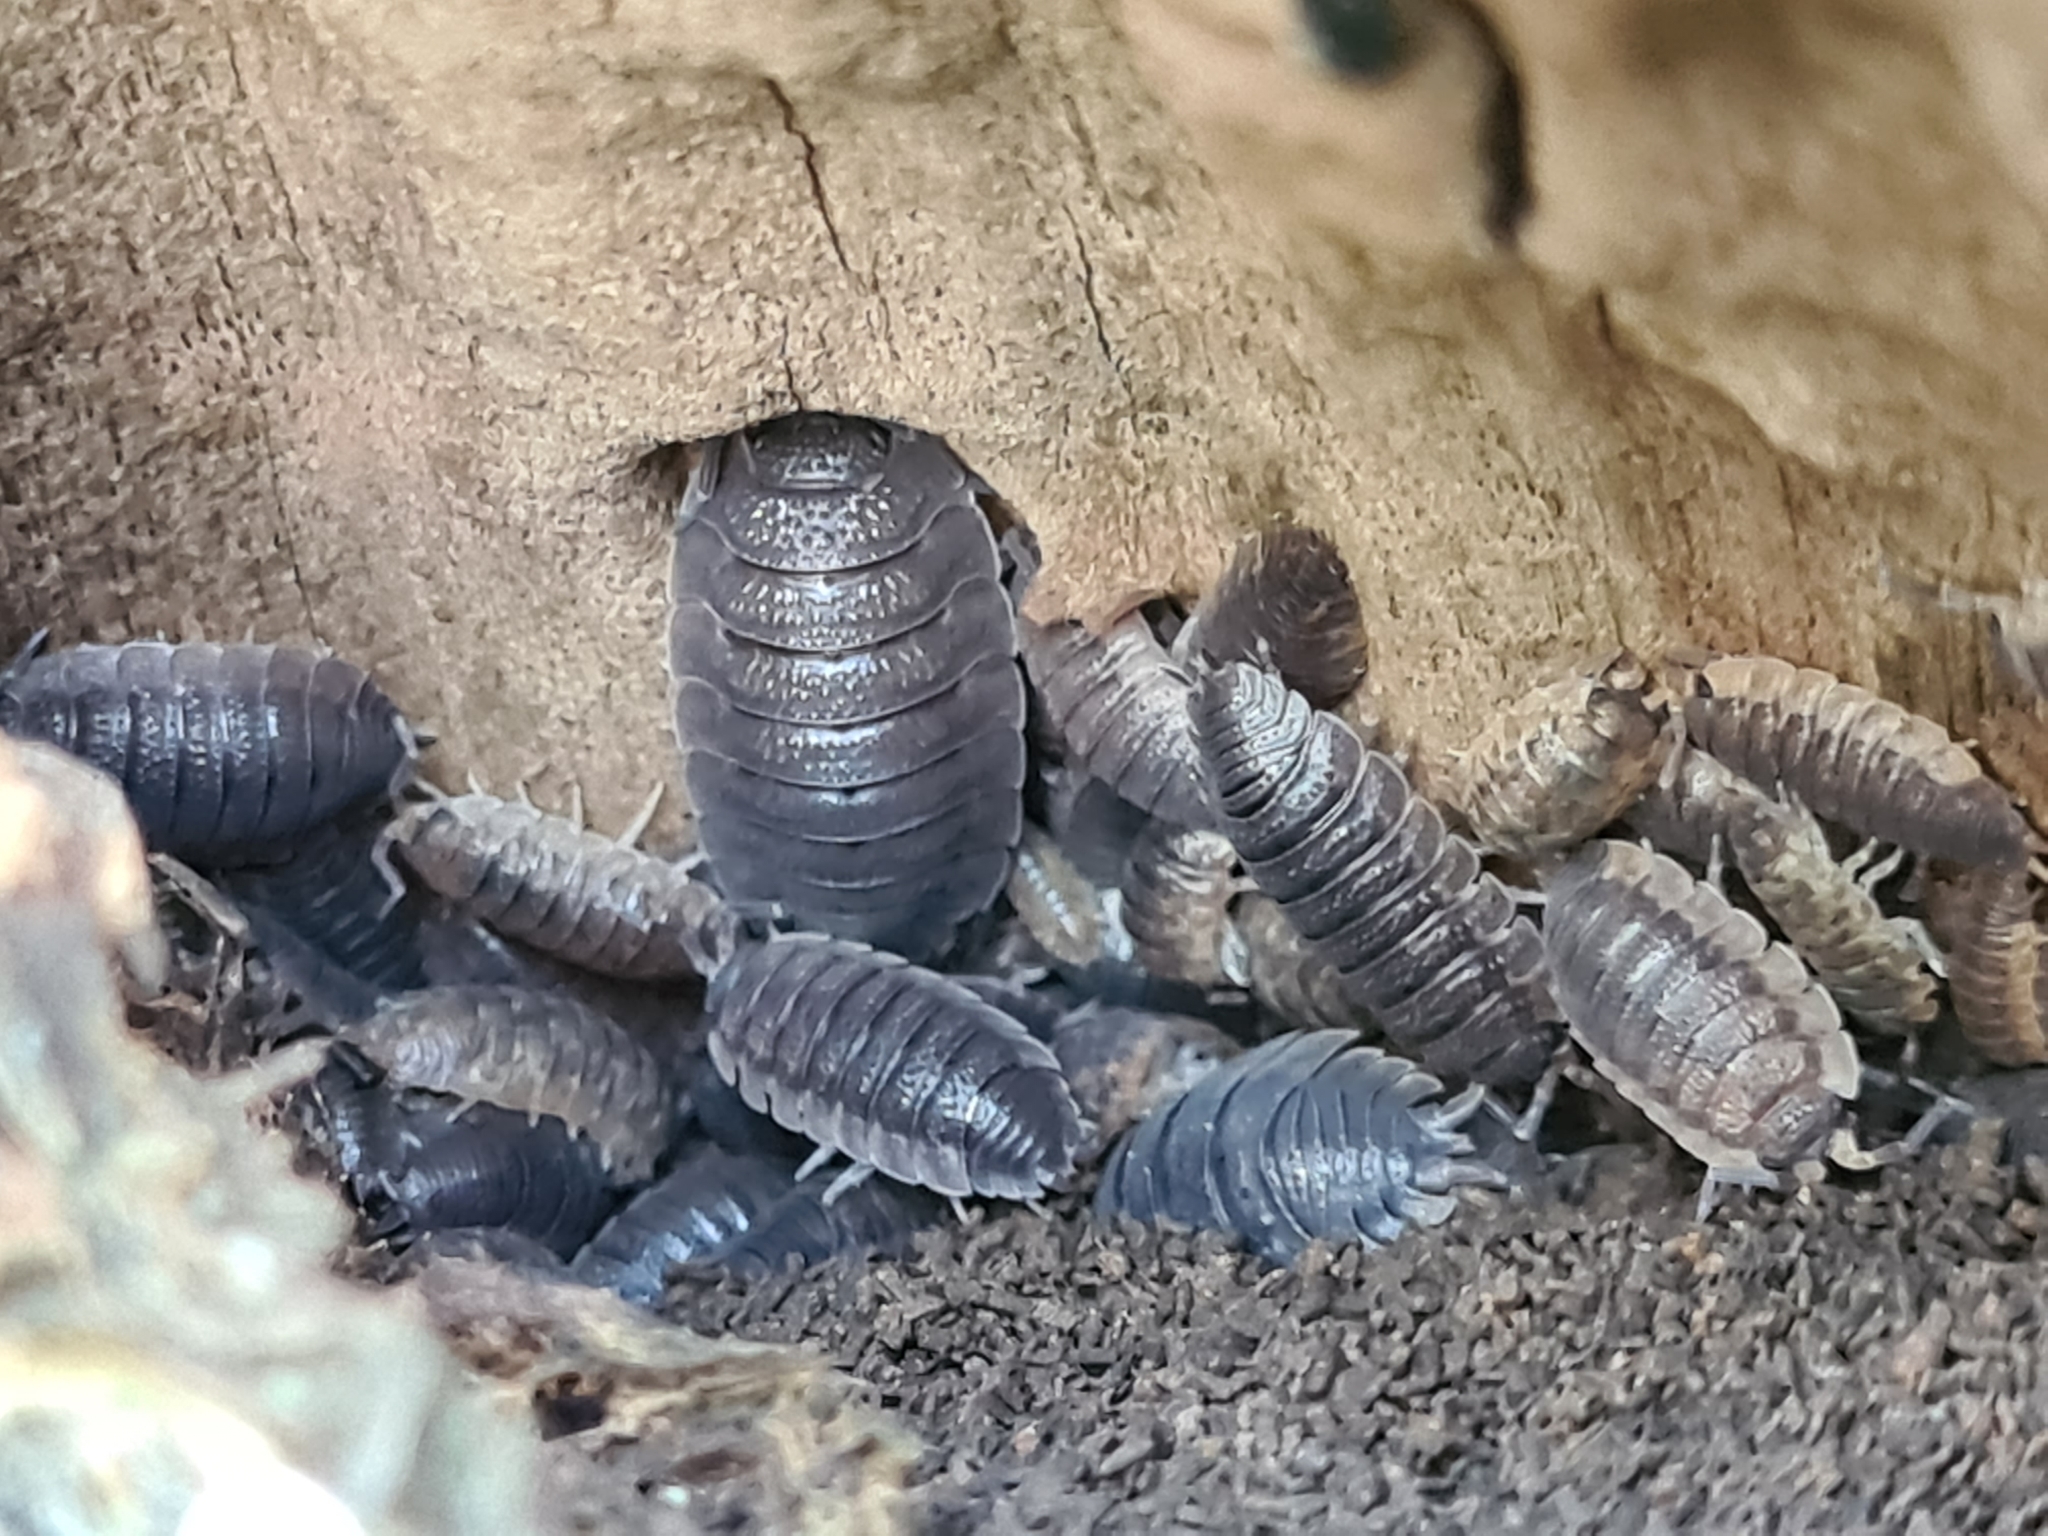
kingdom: Animalia
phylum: Arthropoda
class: Malacostraca
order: Isopoda
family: Porcellionidae
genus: Porcellio
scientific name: Porcellio scaber
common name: Common rough woodlouse
